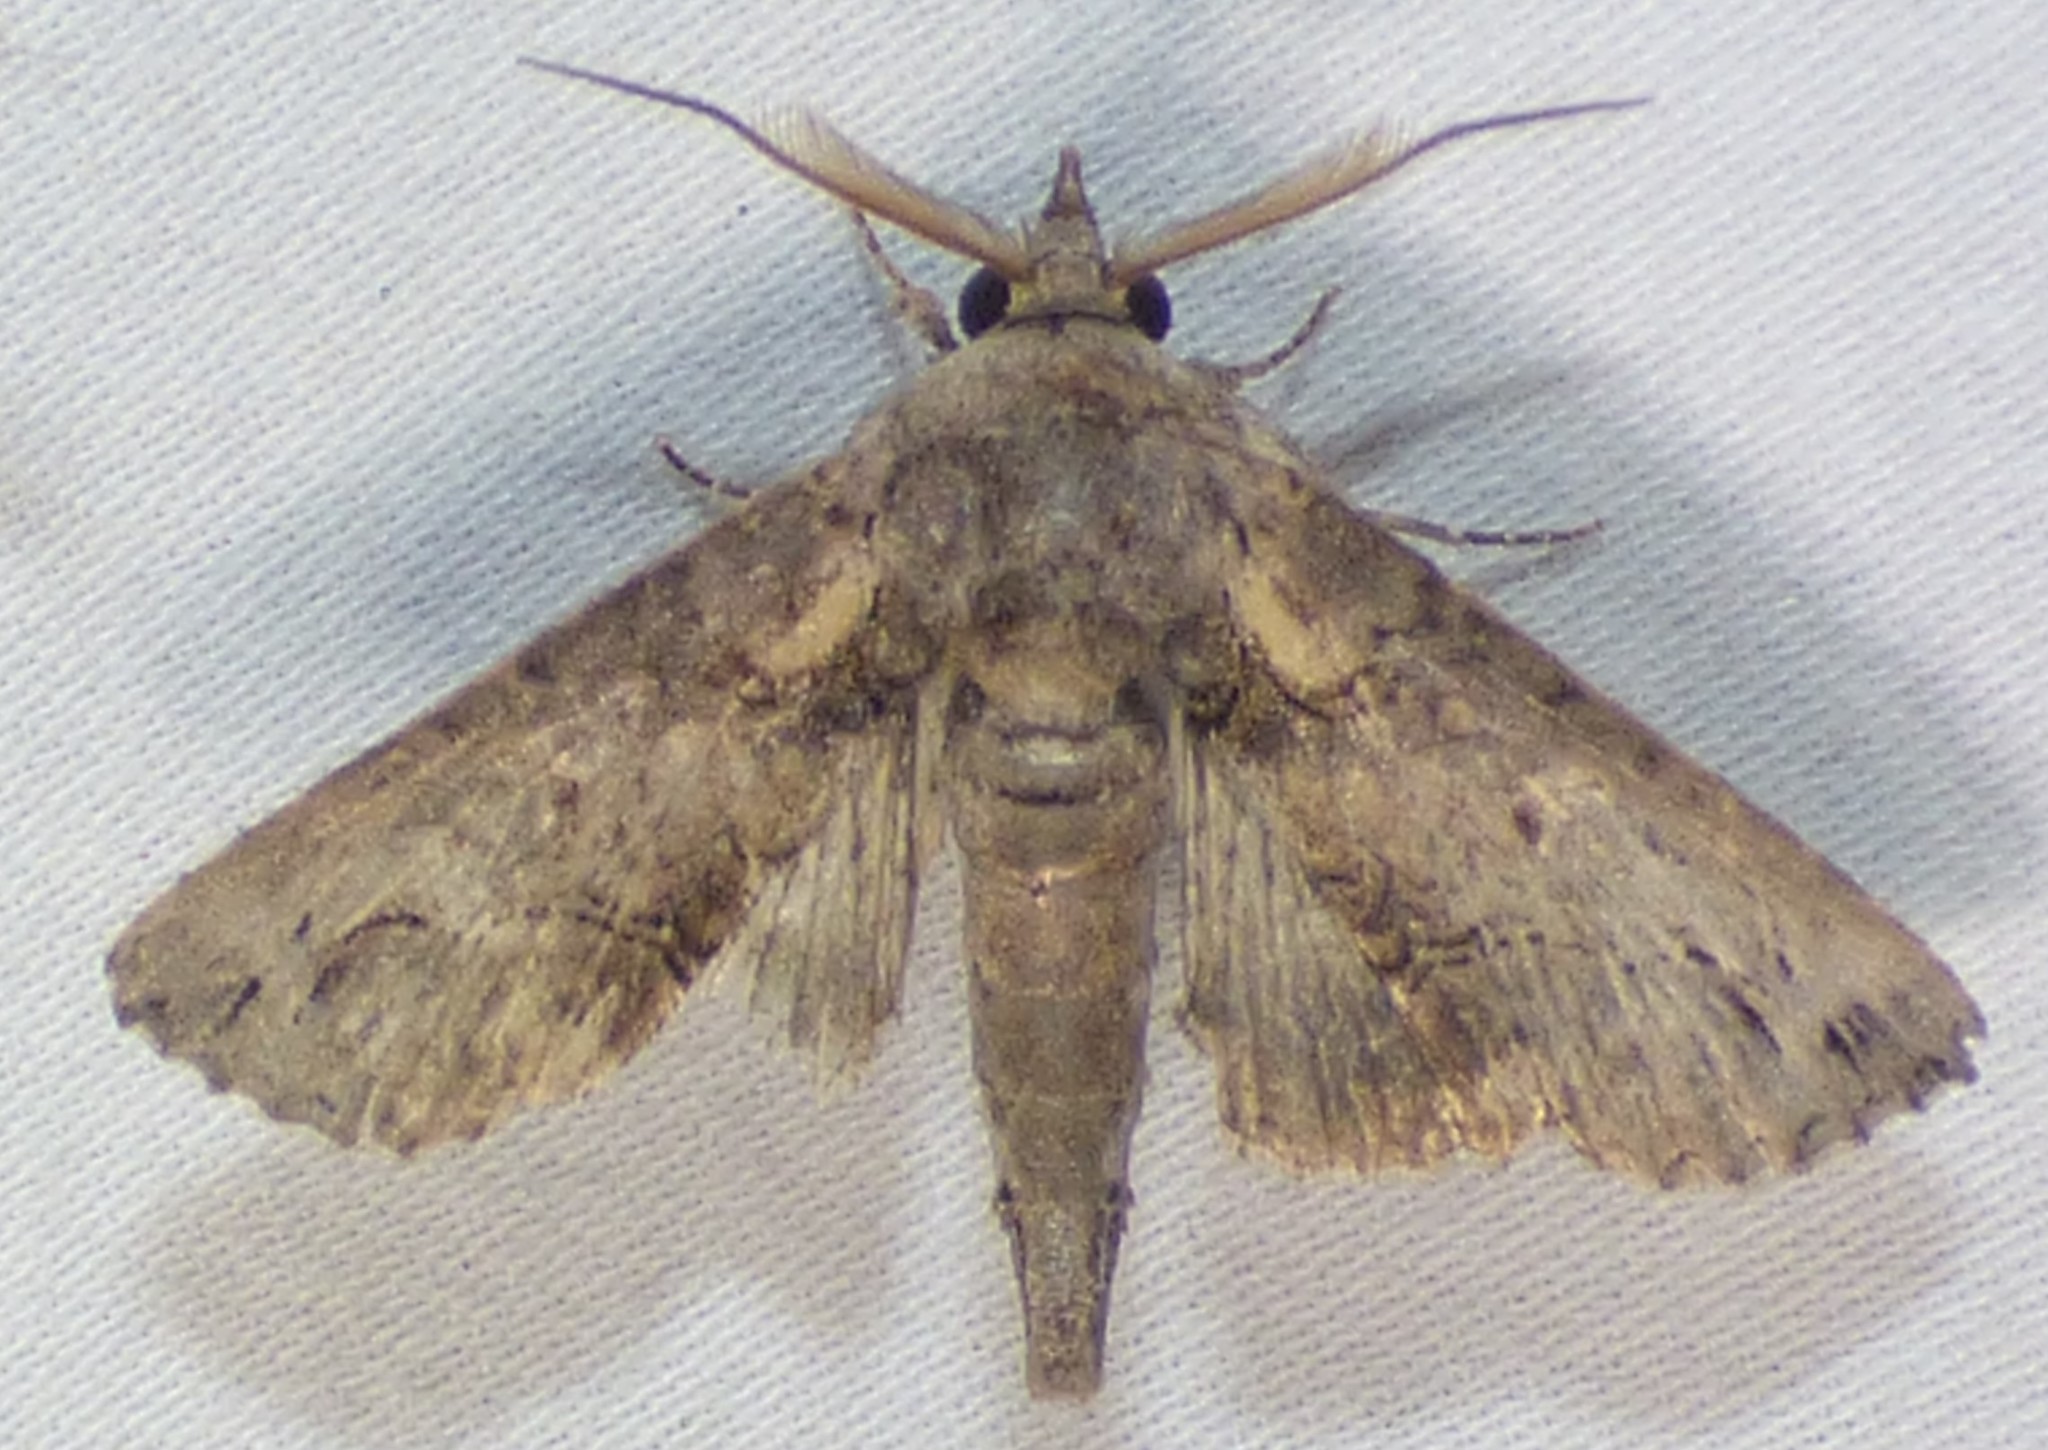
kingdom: Animalia
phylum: Arthropoda
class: Insecta
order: Lepidoptera
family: Euteliidae
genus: Paectes
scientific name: Paectes abrostoloides
